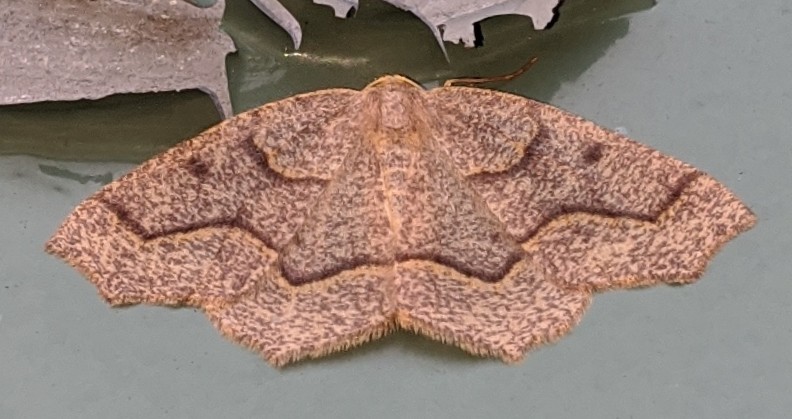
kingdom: Animalia
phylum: Arthropoda
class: Insecta
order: Lepidoptera
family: Geometridae
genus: Lambdina
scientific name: Lambdina fiscellaria
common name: Hemlock looper
